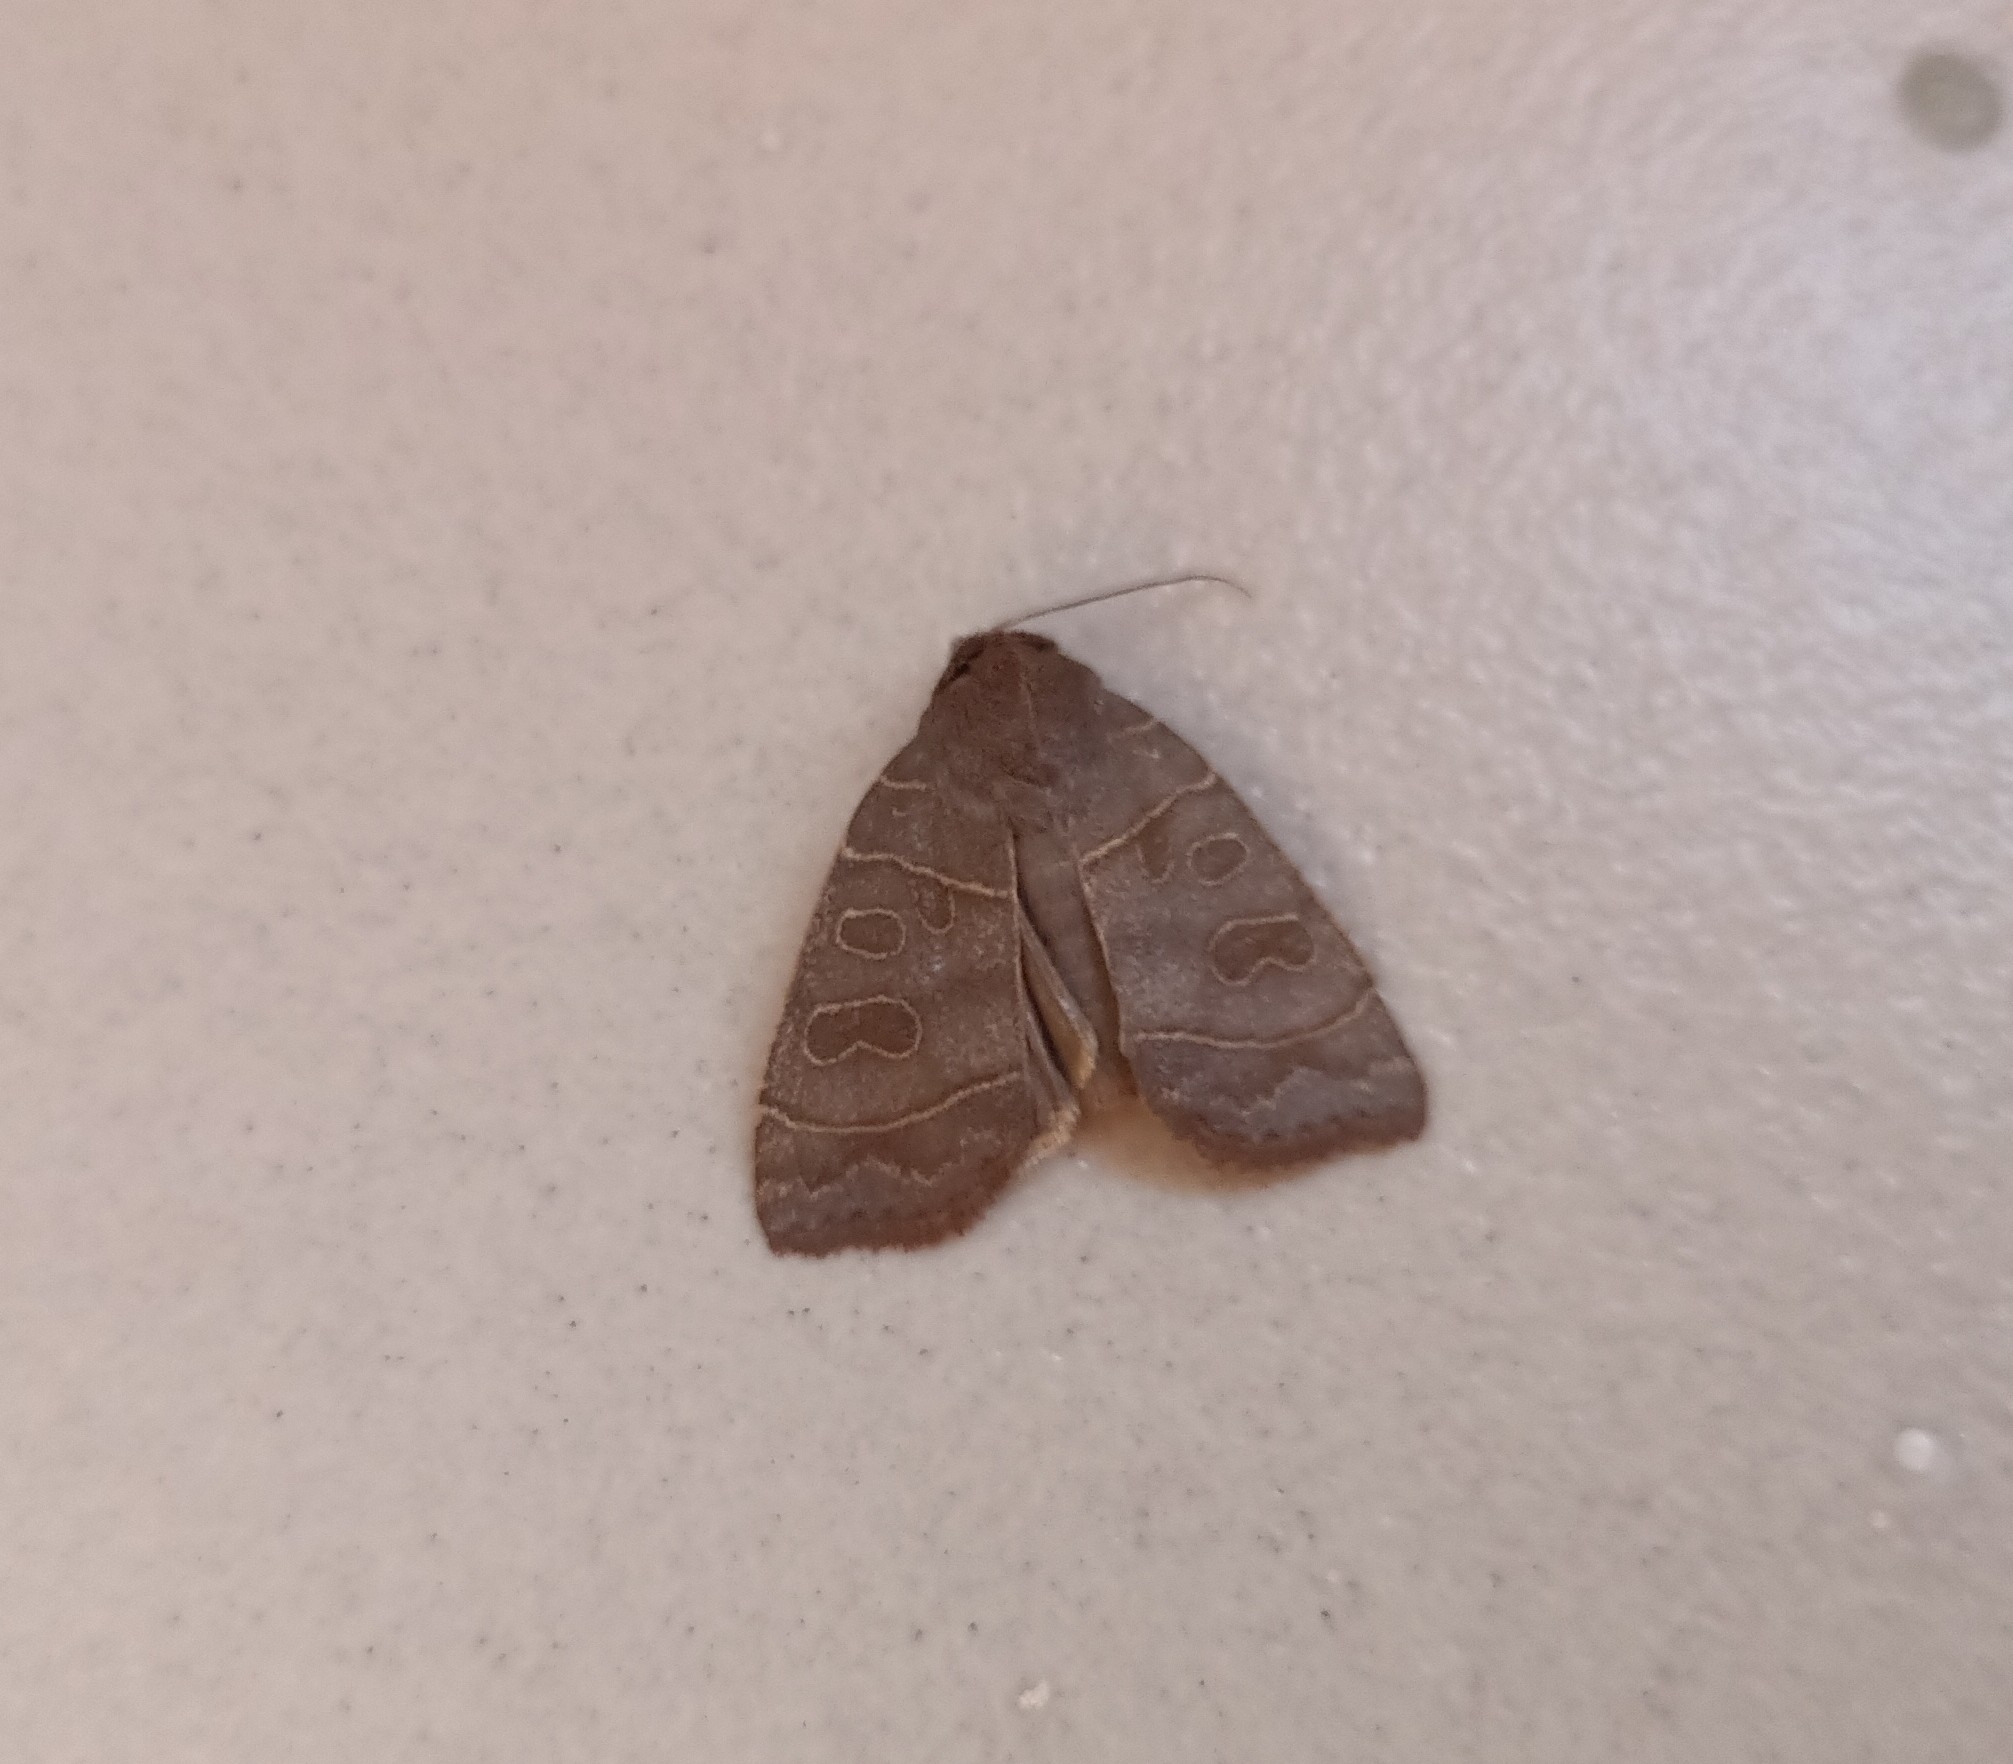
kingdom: Animalia
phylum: Arthropoda
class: Insecta
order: Lepidoptera
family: Noctuidae
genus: Ipimorpha
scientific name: Ipimorpha subtusa
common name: Olive
